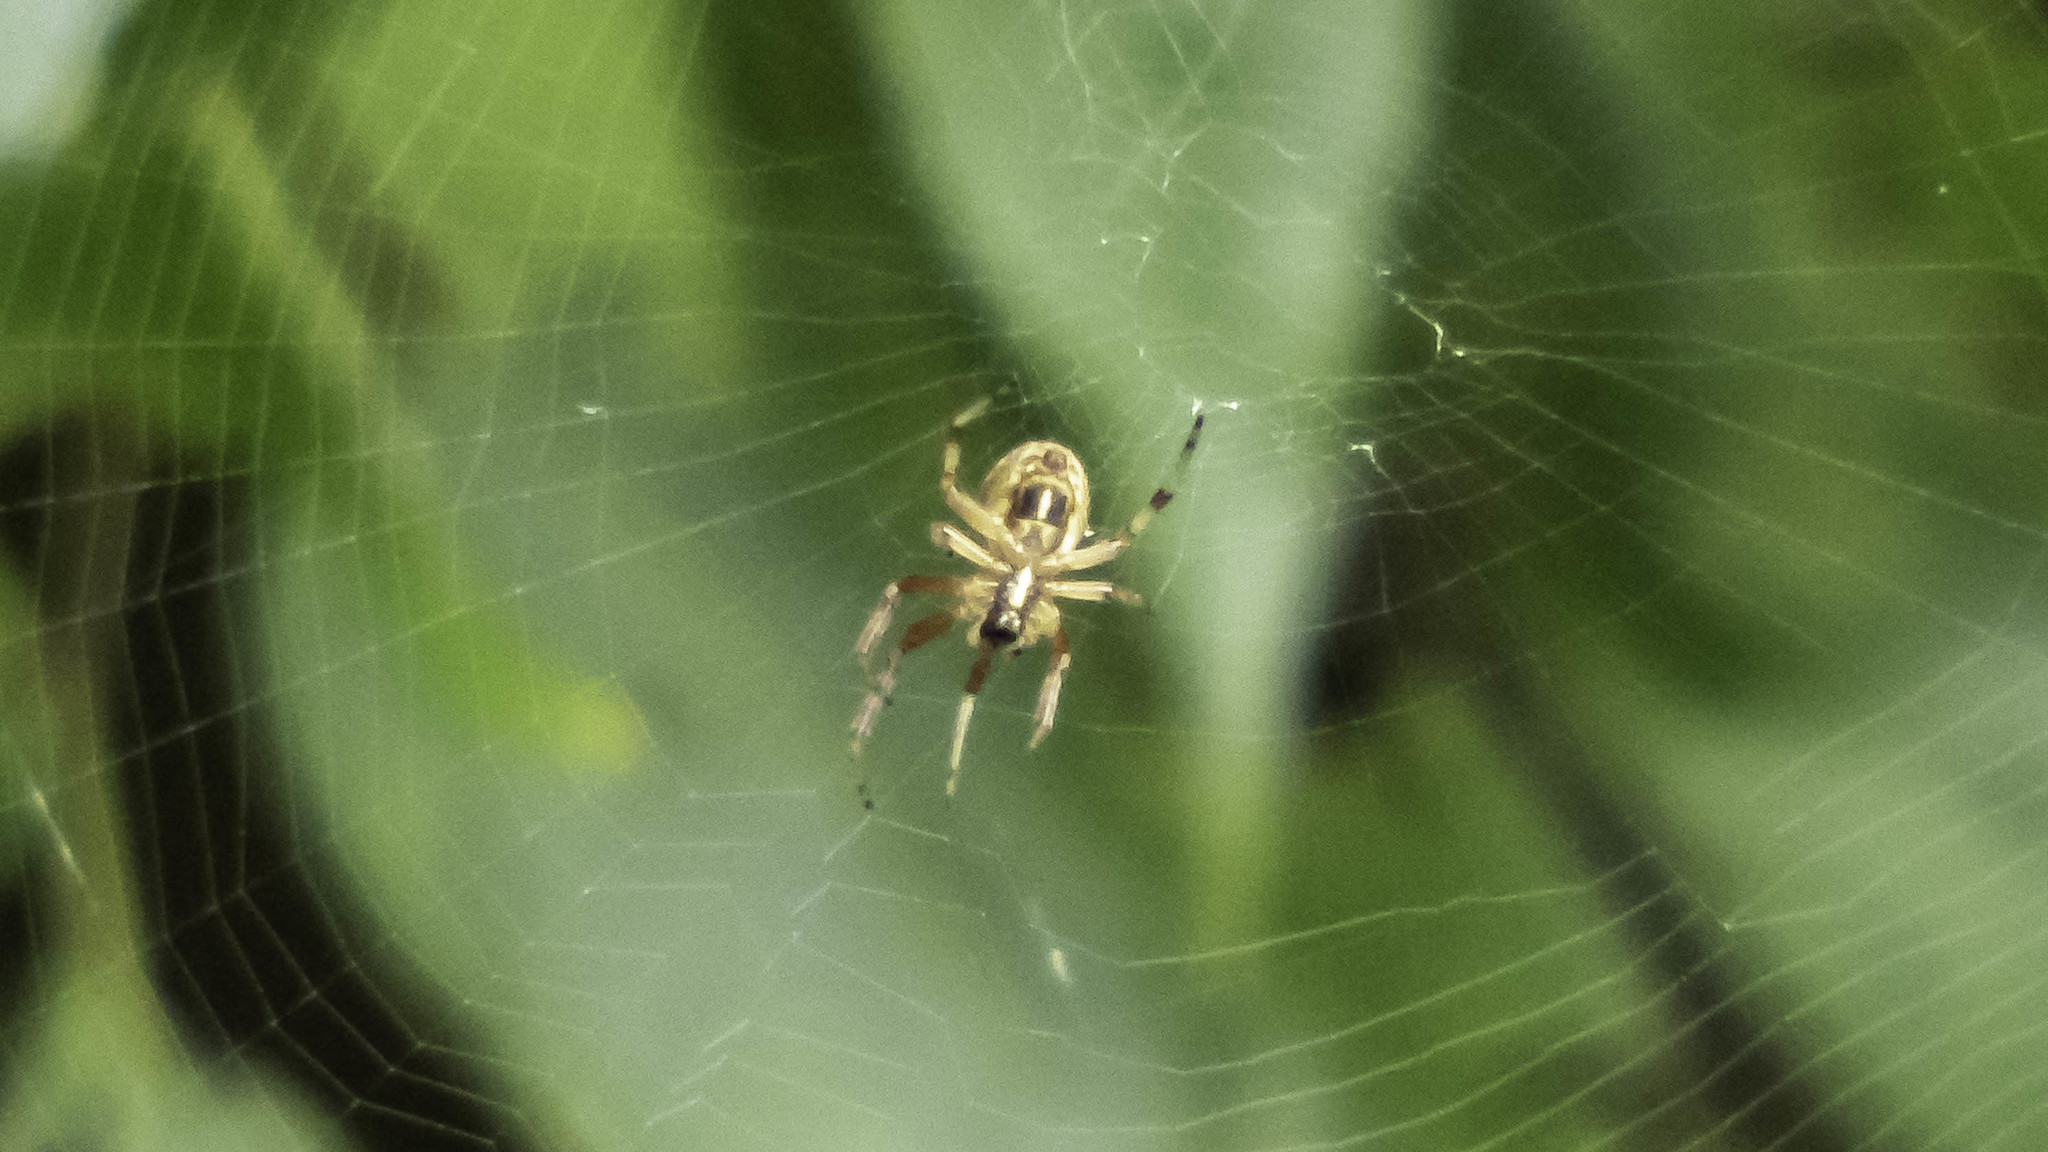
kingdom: Animalia
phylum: Arthropoda
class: Arachnida
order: Araneae
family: Araneidae
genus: Metepeira
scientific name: Metepeira labyrinthea
